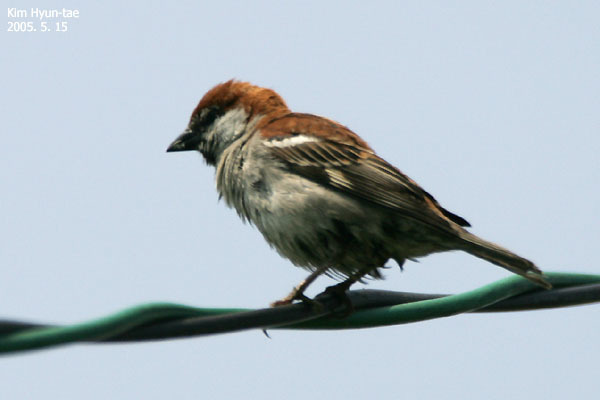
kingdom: Animalia
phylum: Chordata
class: Aves
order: Passeriformes
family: Passeridae
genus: Passer
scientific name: Passer cinnamomeus
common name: Russet sparrow
